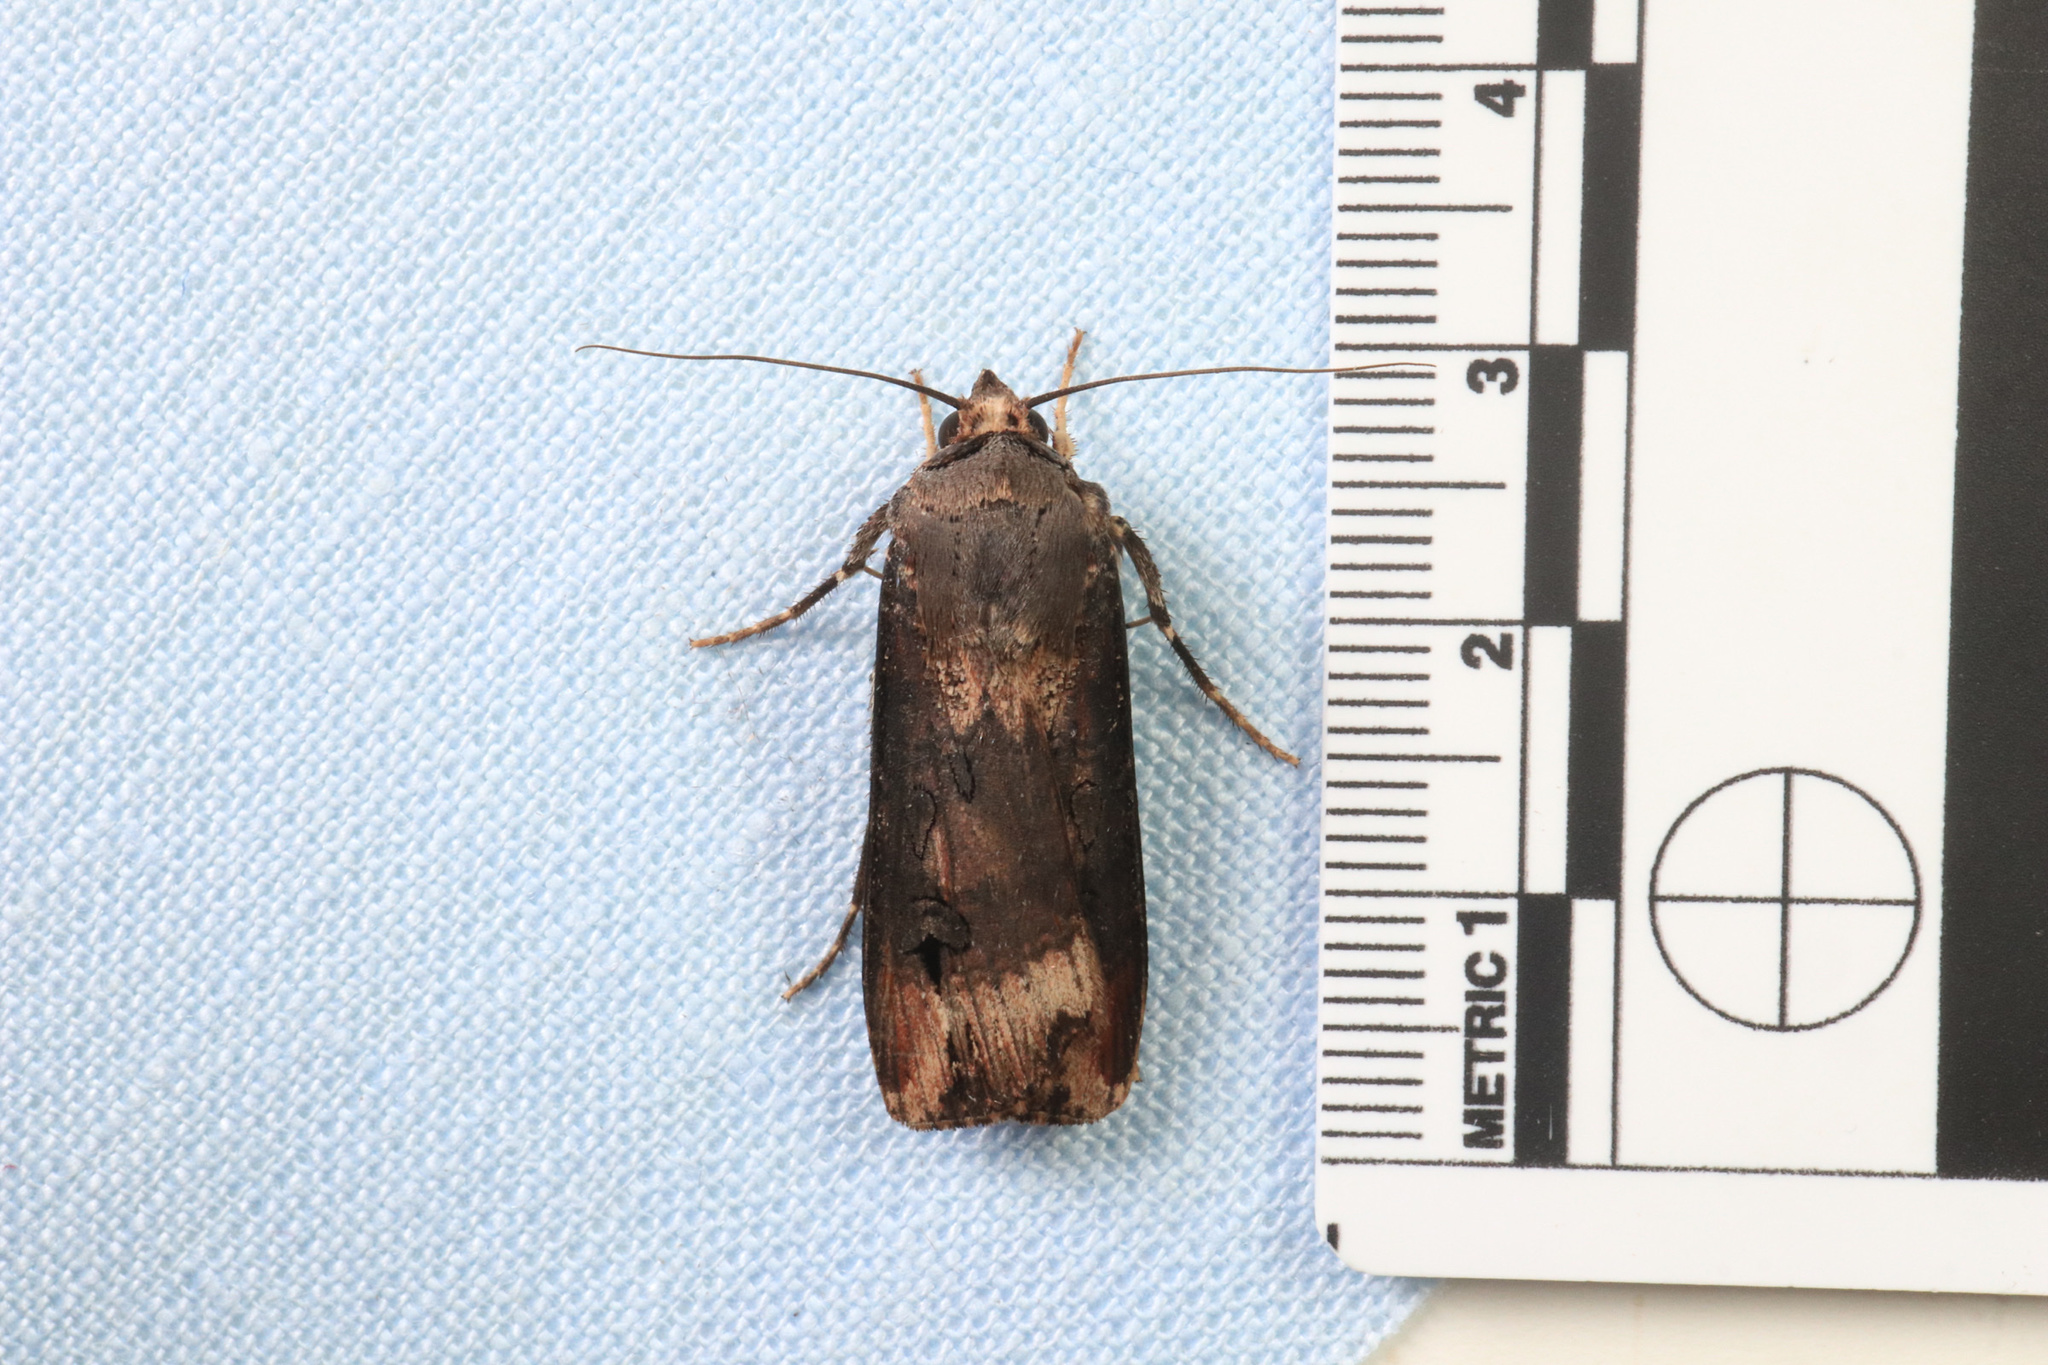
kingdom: Animalia
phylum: Arthropoda
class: Insecta
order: Lepidoptera
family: Noctuidae
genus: Agrotis
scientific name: Agrotis ipsilon
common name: Dark sword-grass
